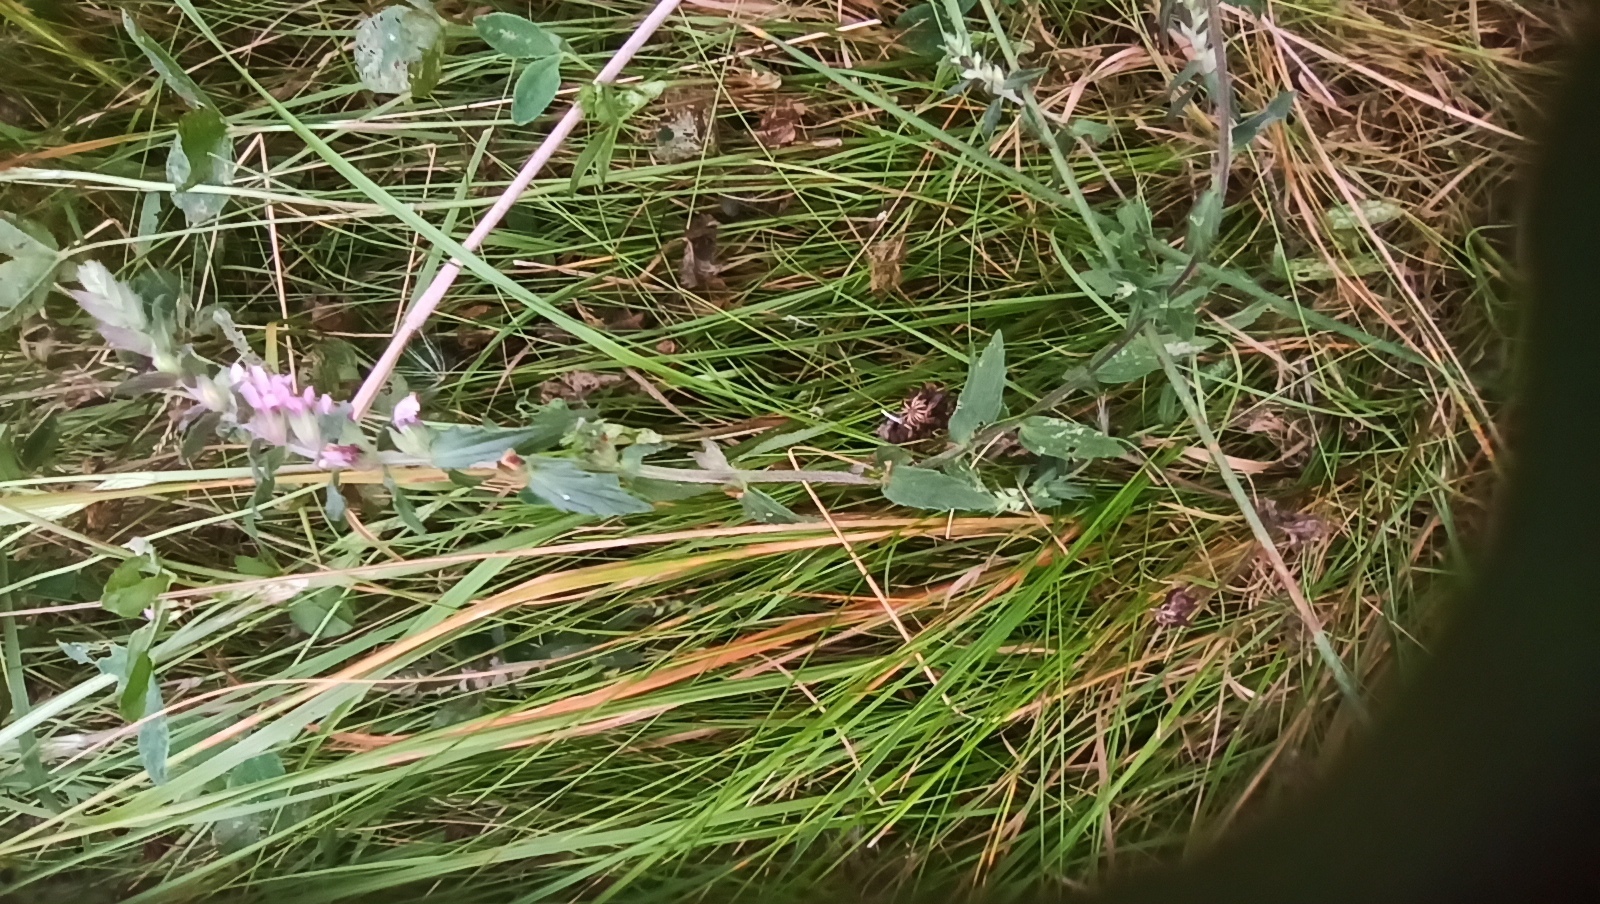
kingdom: Plantae
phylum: Tracheophyta
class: Magnoliopsida
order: Lamiales
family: Orobanchaceae
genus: Odontites
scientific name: Odontites vulgaris
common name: Broomrape
